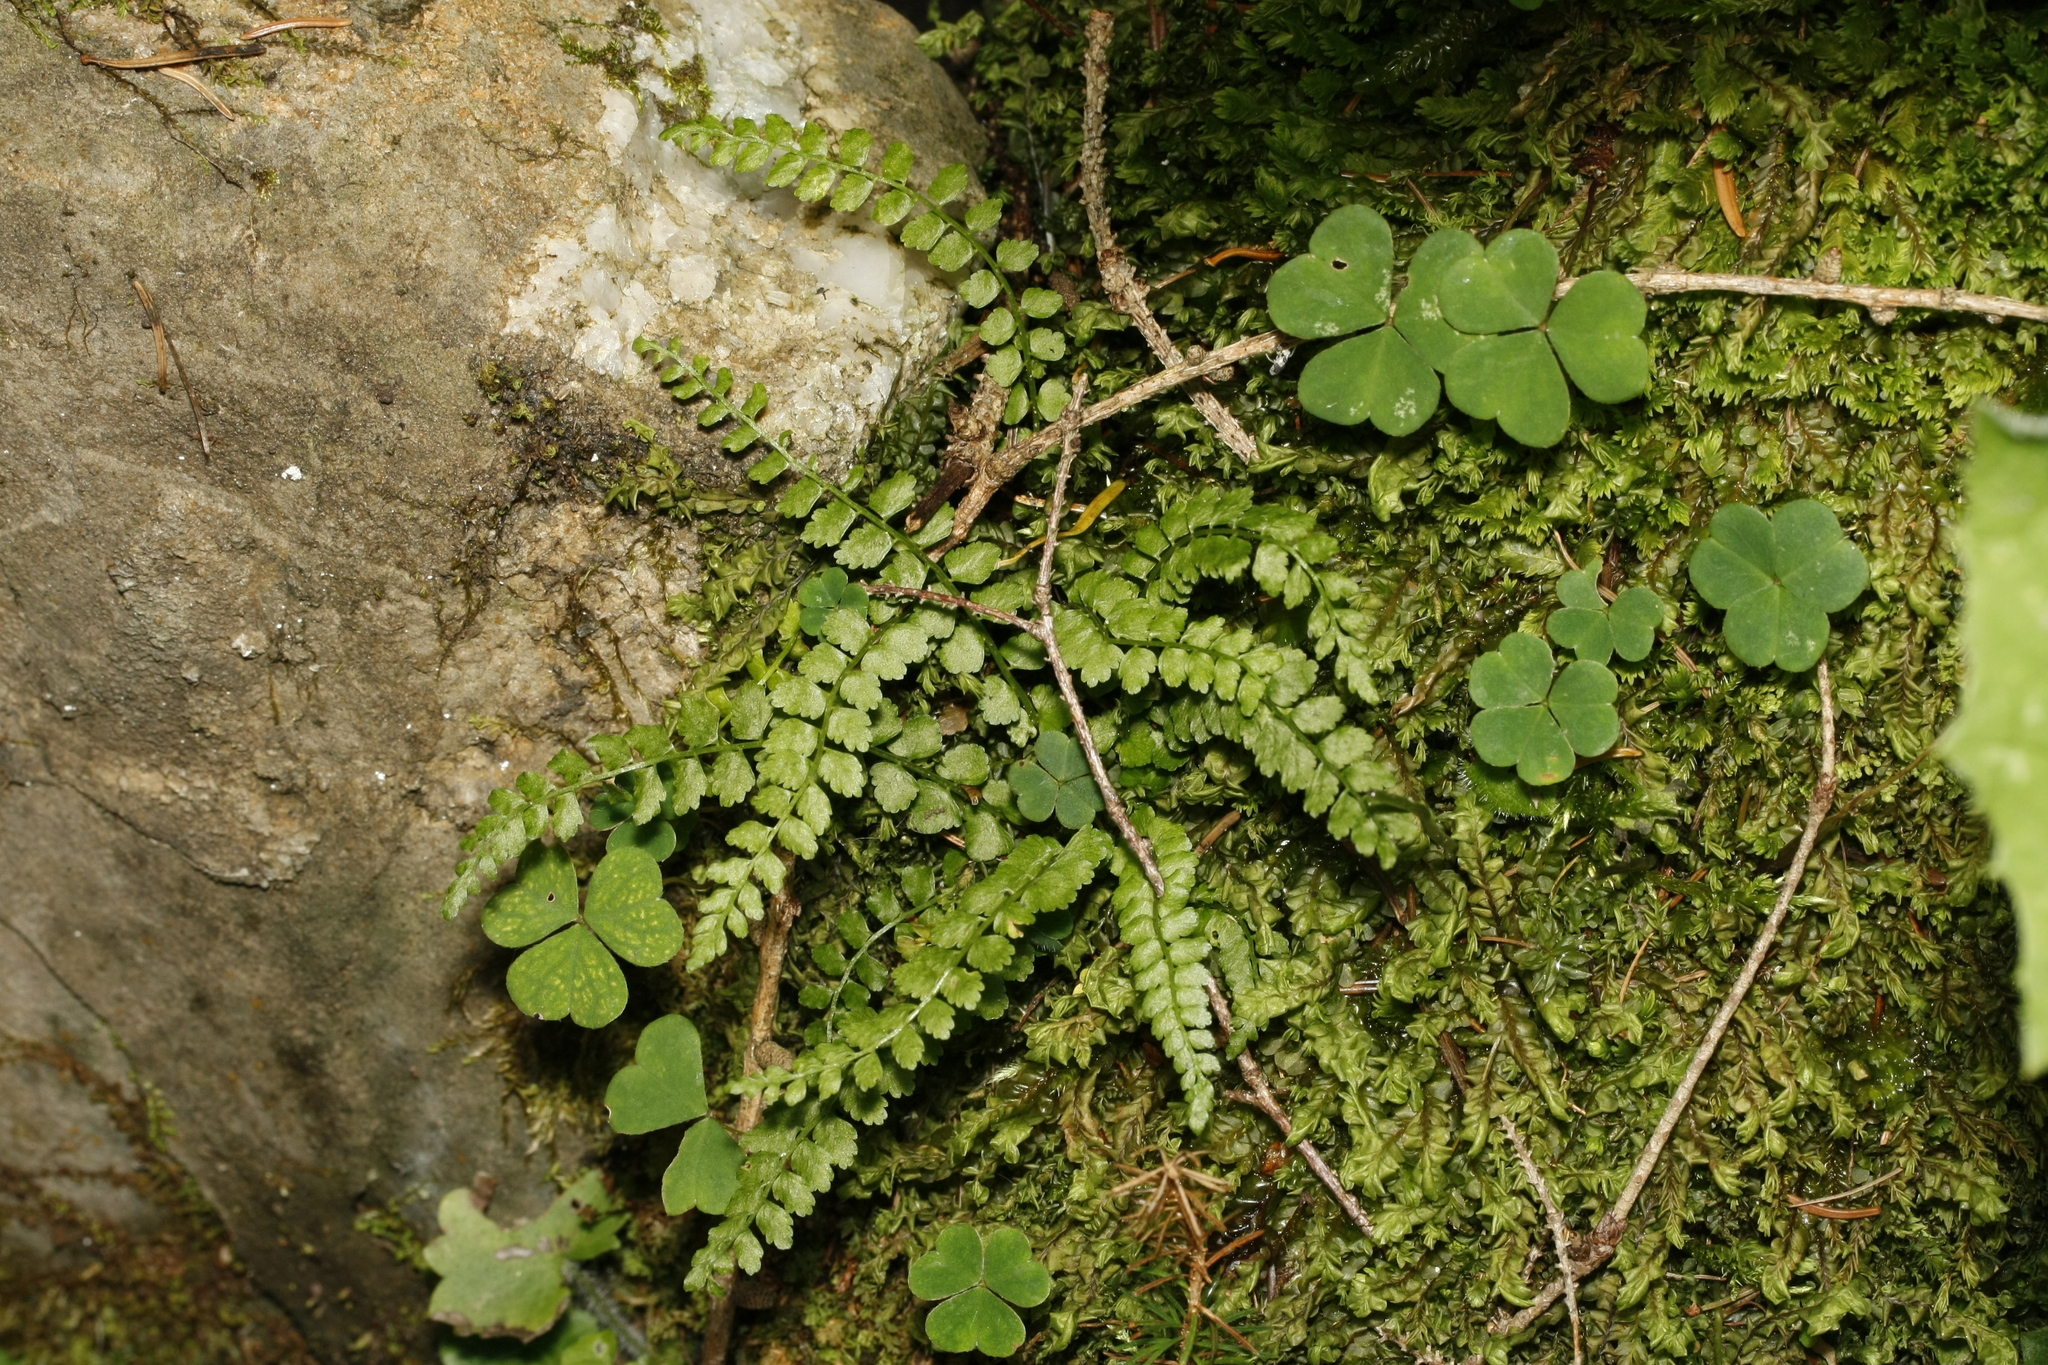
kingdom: Plantae
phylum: Tracheophyta
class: Polypodiopsida
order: Polypodiales
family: Aspleniaceae
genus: Asplenium
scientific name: Asplenium viride
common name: Green spleenwort
